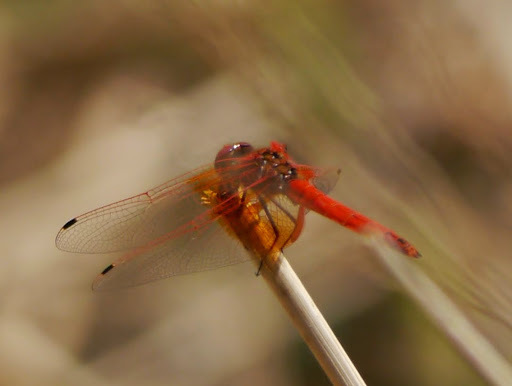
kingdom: Animalia
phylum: Arthropoda
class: Insecta
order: Odonata
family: Libellulidae
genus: Trithemis
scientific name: Trithemis kirbyi
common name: Kirby's dropwing
